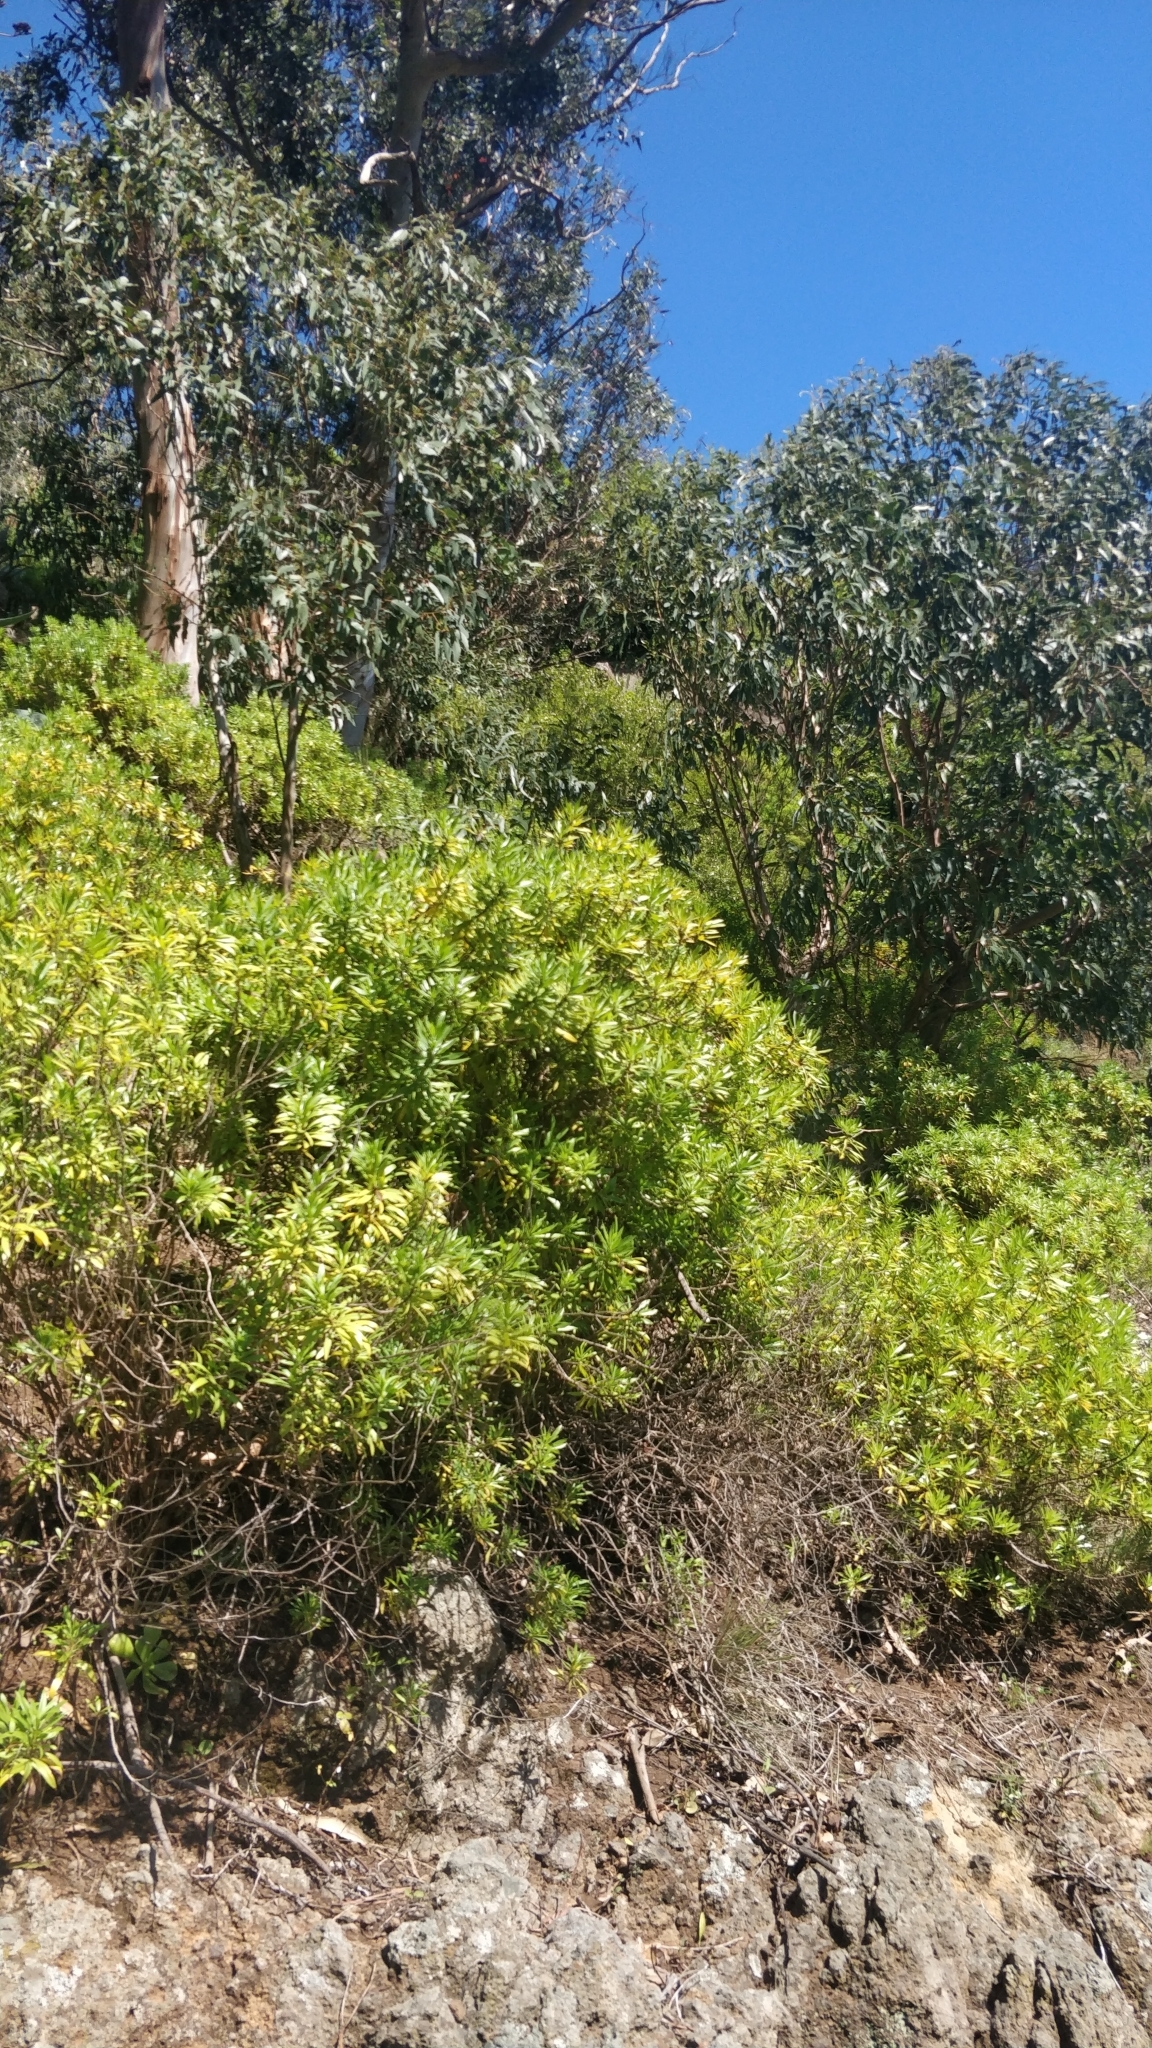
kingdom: Plantae
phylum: Tracheophyta
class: Magnoliopsida
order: Lamiales
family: Plantaginaceae
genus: Globularia
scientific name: Globularia salicina
